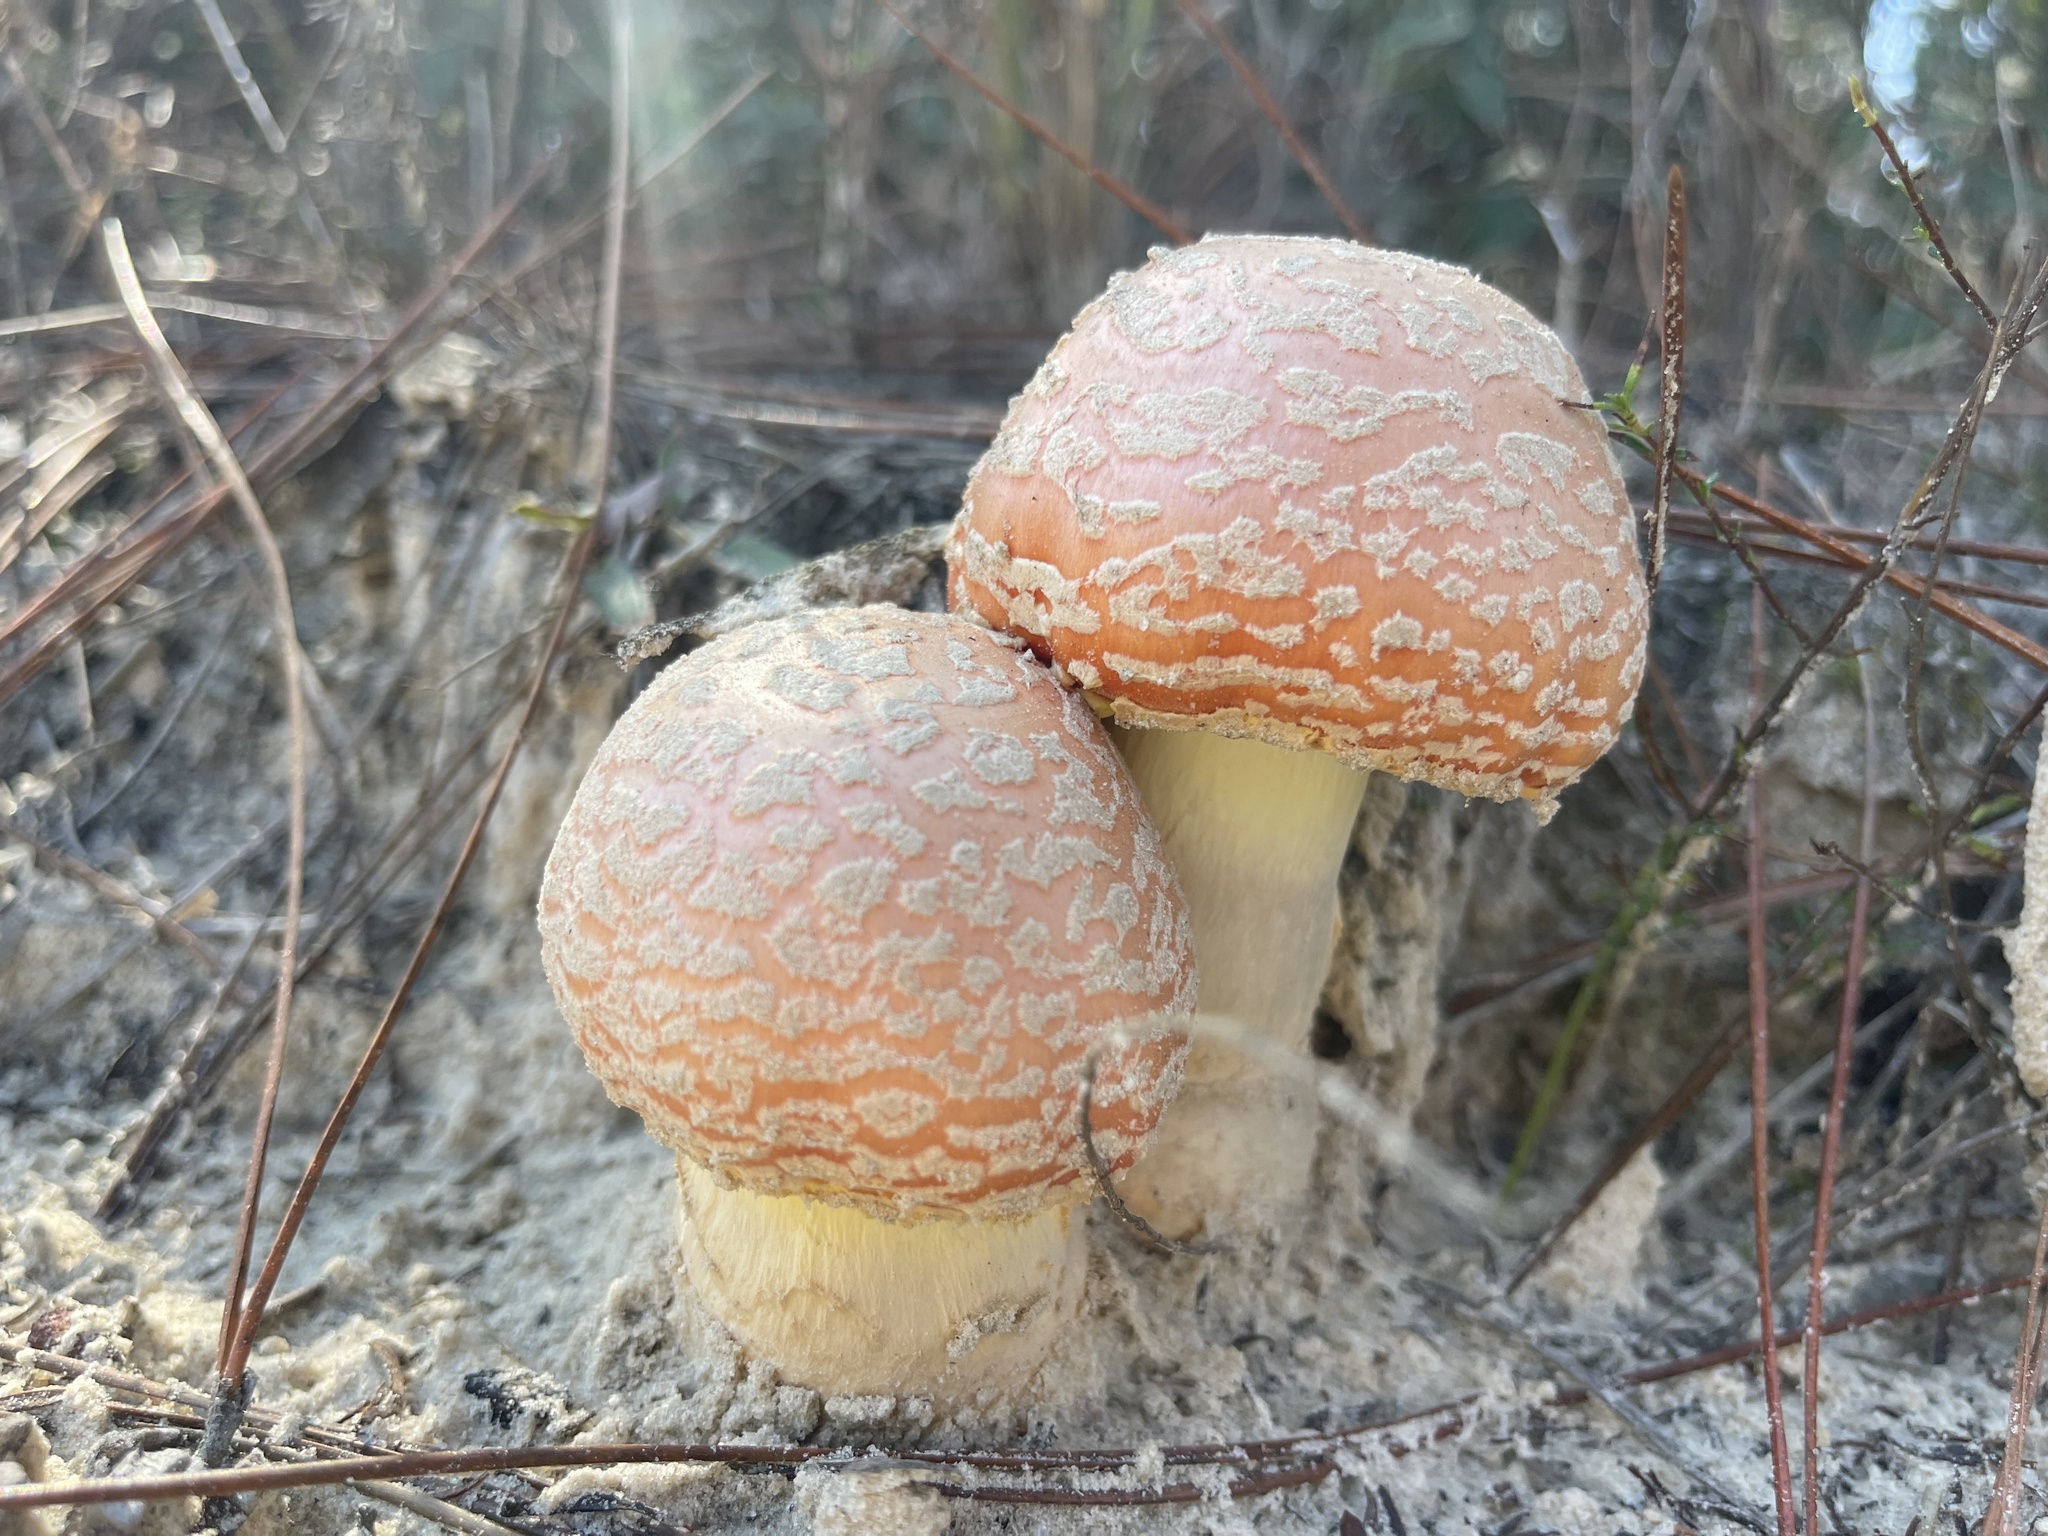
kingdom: Fungi
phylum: Basidiomycota
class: Agaricomycetes
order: Agaricales
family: Amanitaceae
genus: Amanita
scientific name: Amanita persicina
